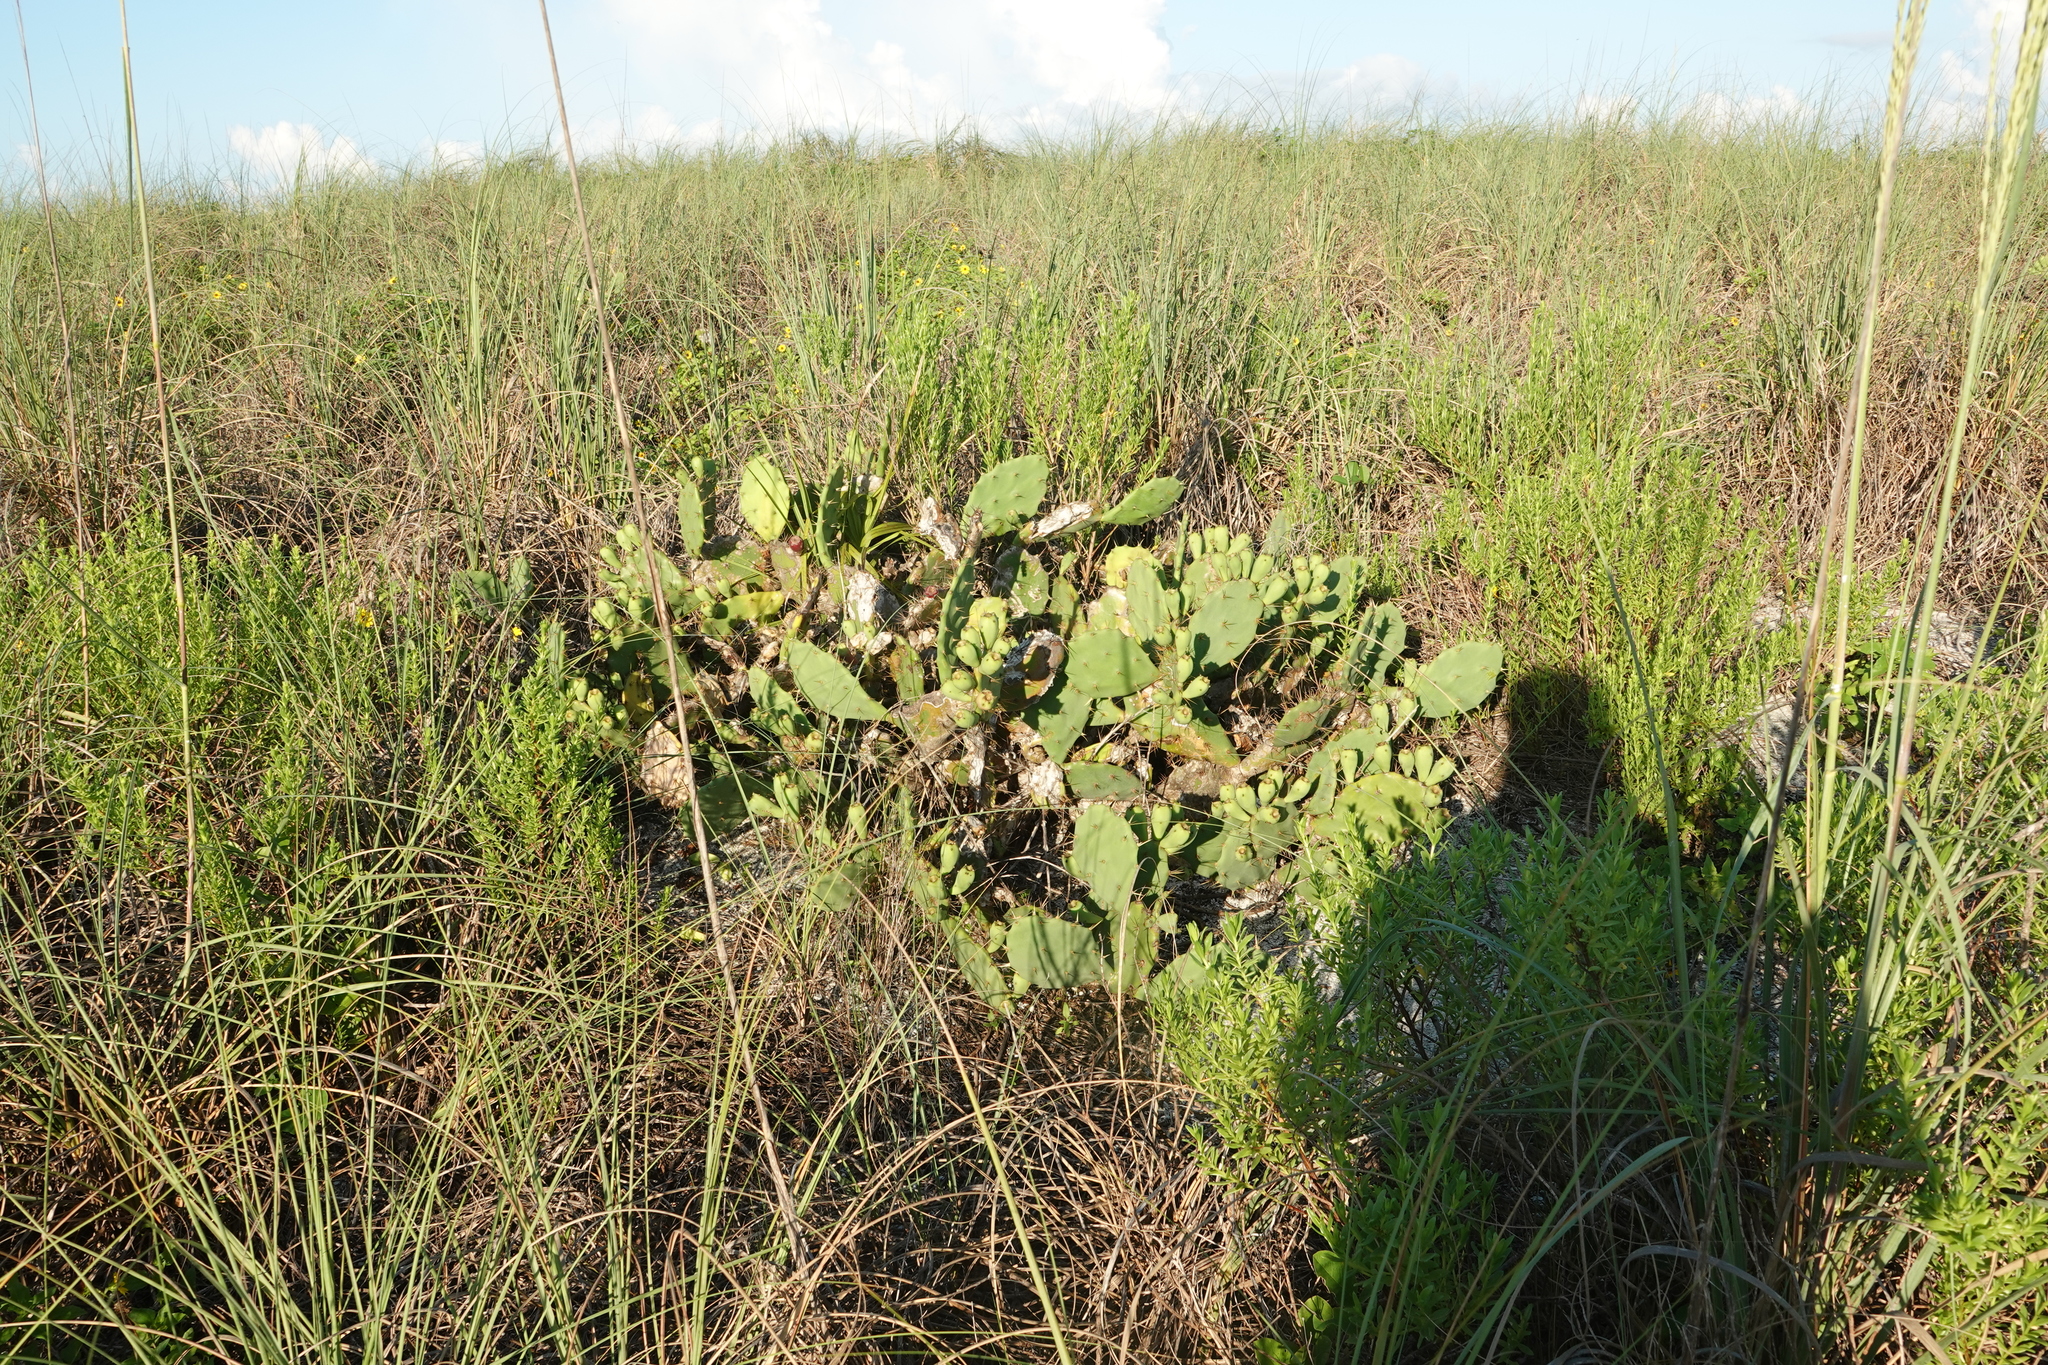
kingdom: Plantae
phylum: Tracheophyta
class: Magnoliopsida
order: Caryophyllales
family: Cactaceae
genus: Opuntia
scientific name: Opuntia stricta
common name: Erect pricklypear
